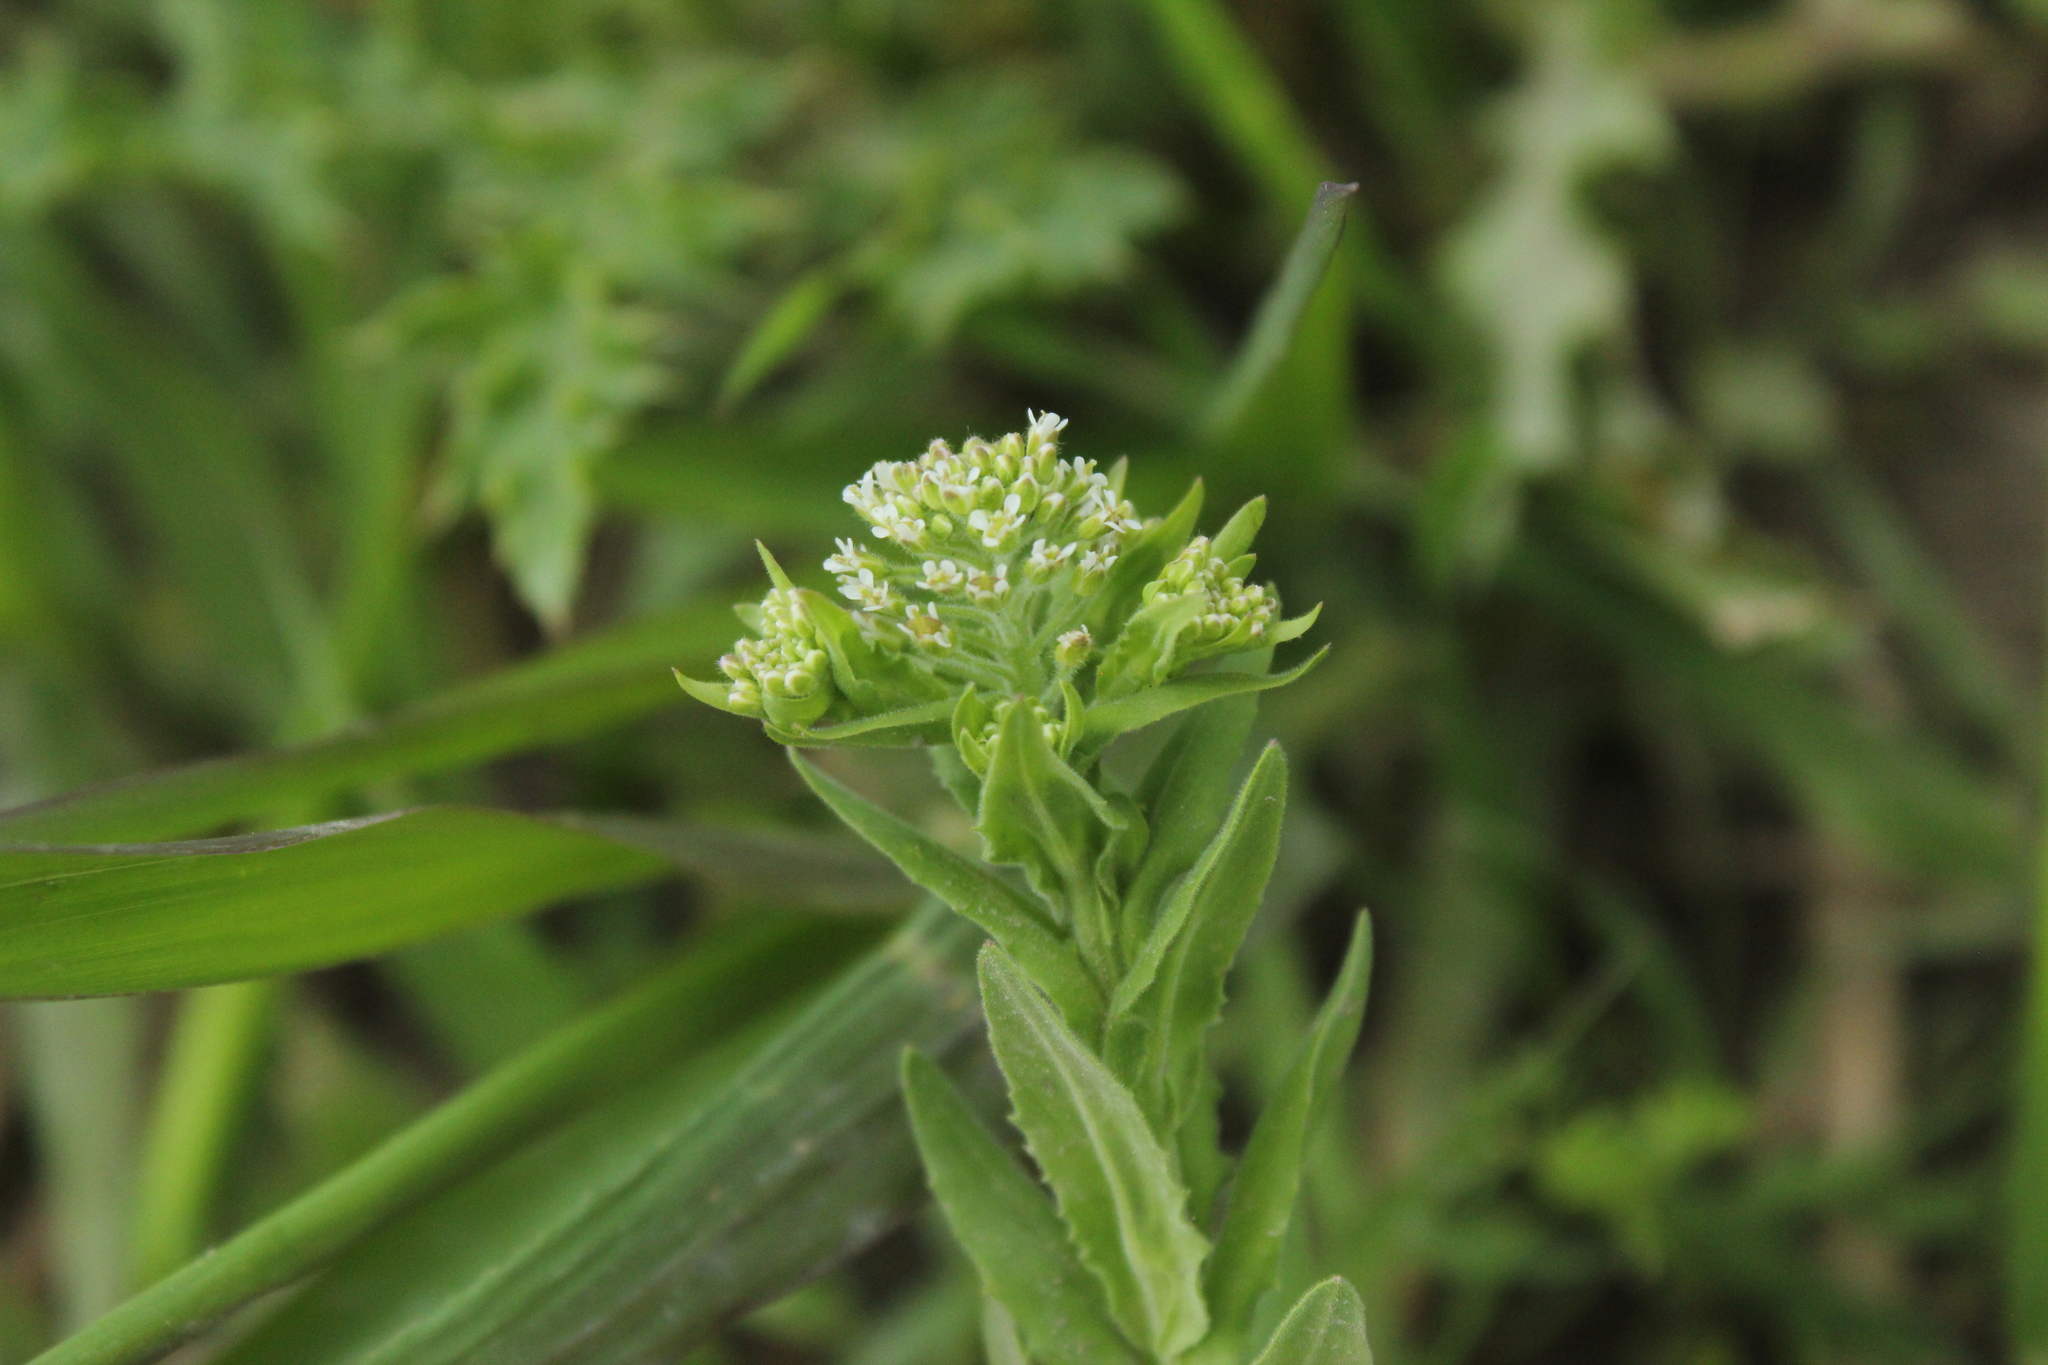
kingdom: Plantae
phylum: Tracheophyta
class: Magnoliopsida
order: Brassicales
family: Brassicaceae
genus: Lepidium
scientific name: Lepidium campestre
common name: Field pepperwort
